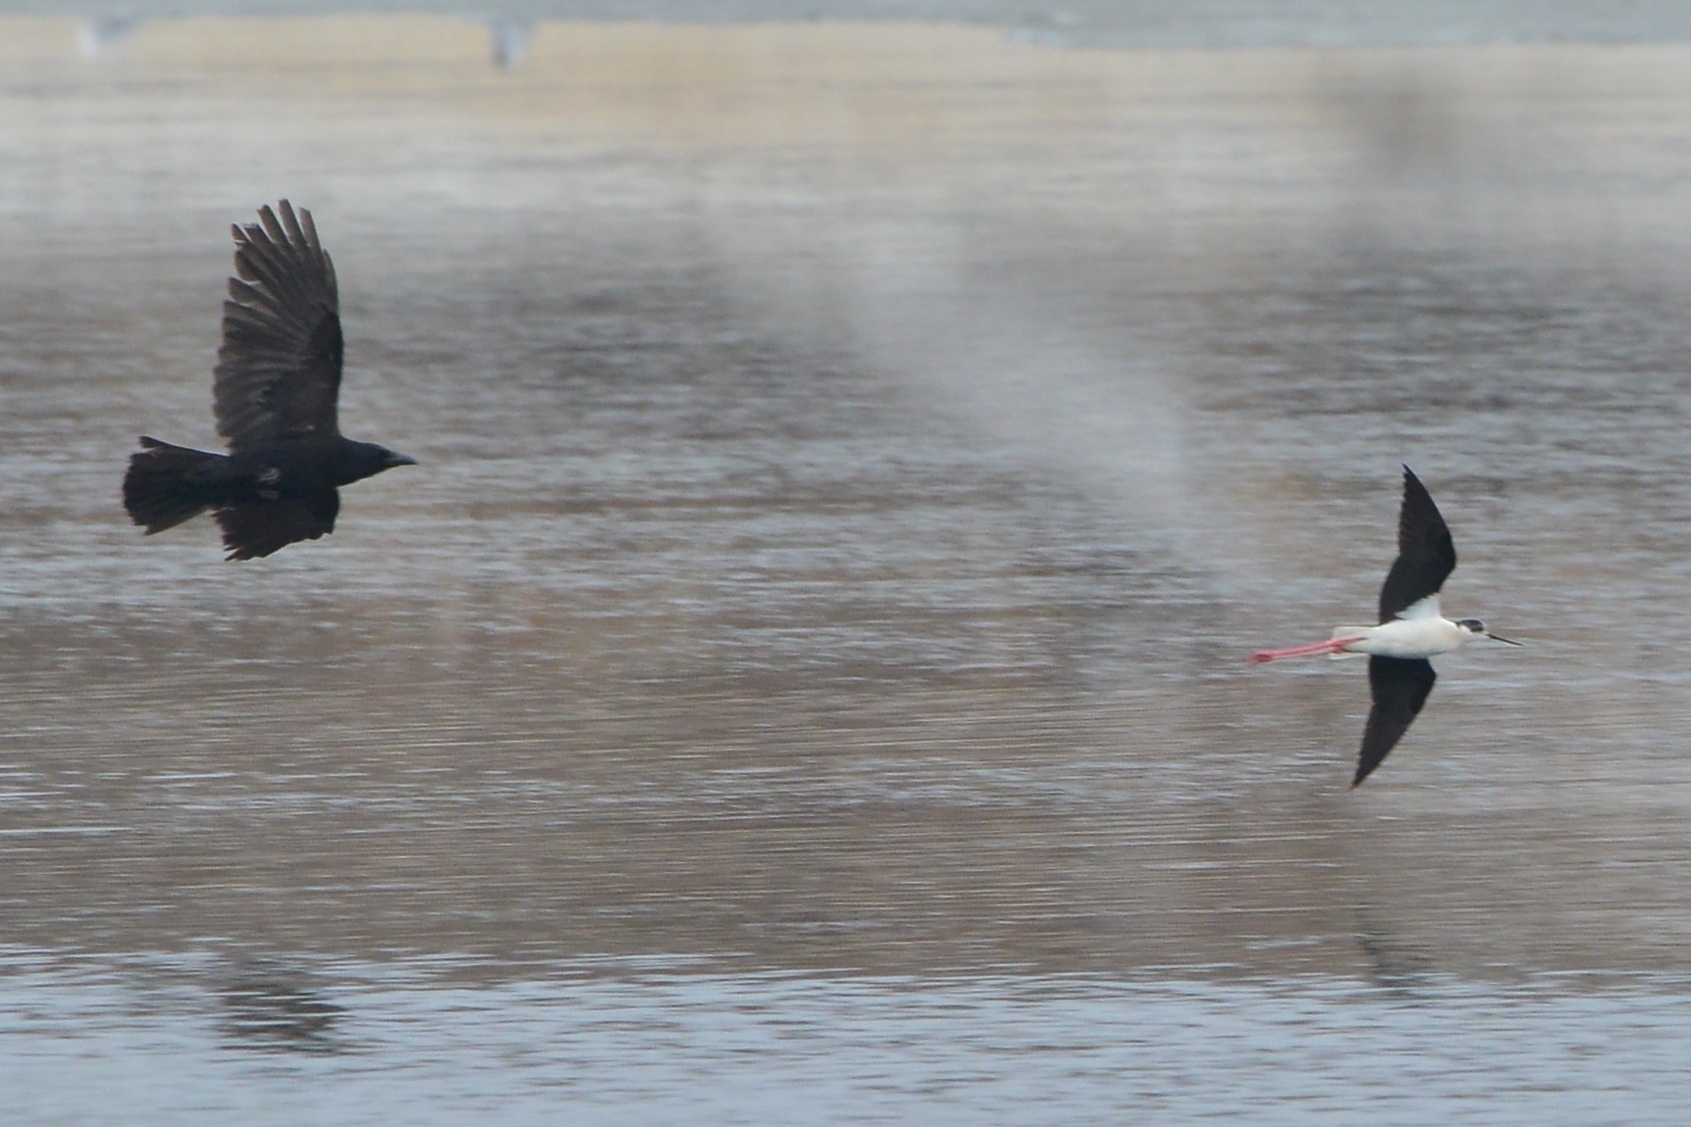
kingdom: Animalia
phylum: Chordata
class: Aves
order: Charadriiformes
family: Recurvirostridae
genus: Himantopus
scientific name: Himantopus himantopus
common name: Black-winged stilt
